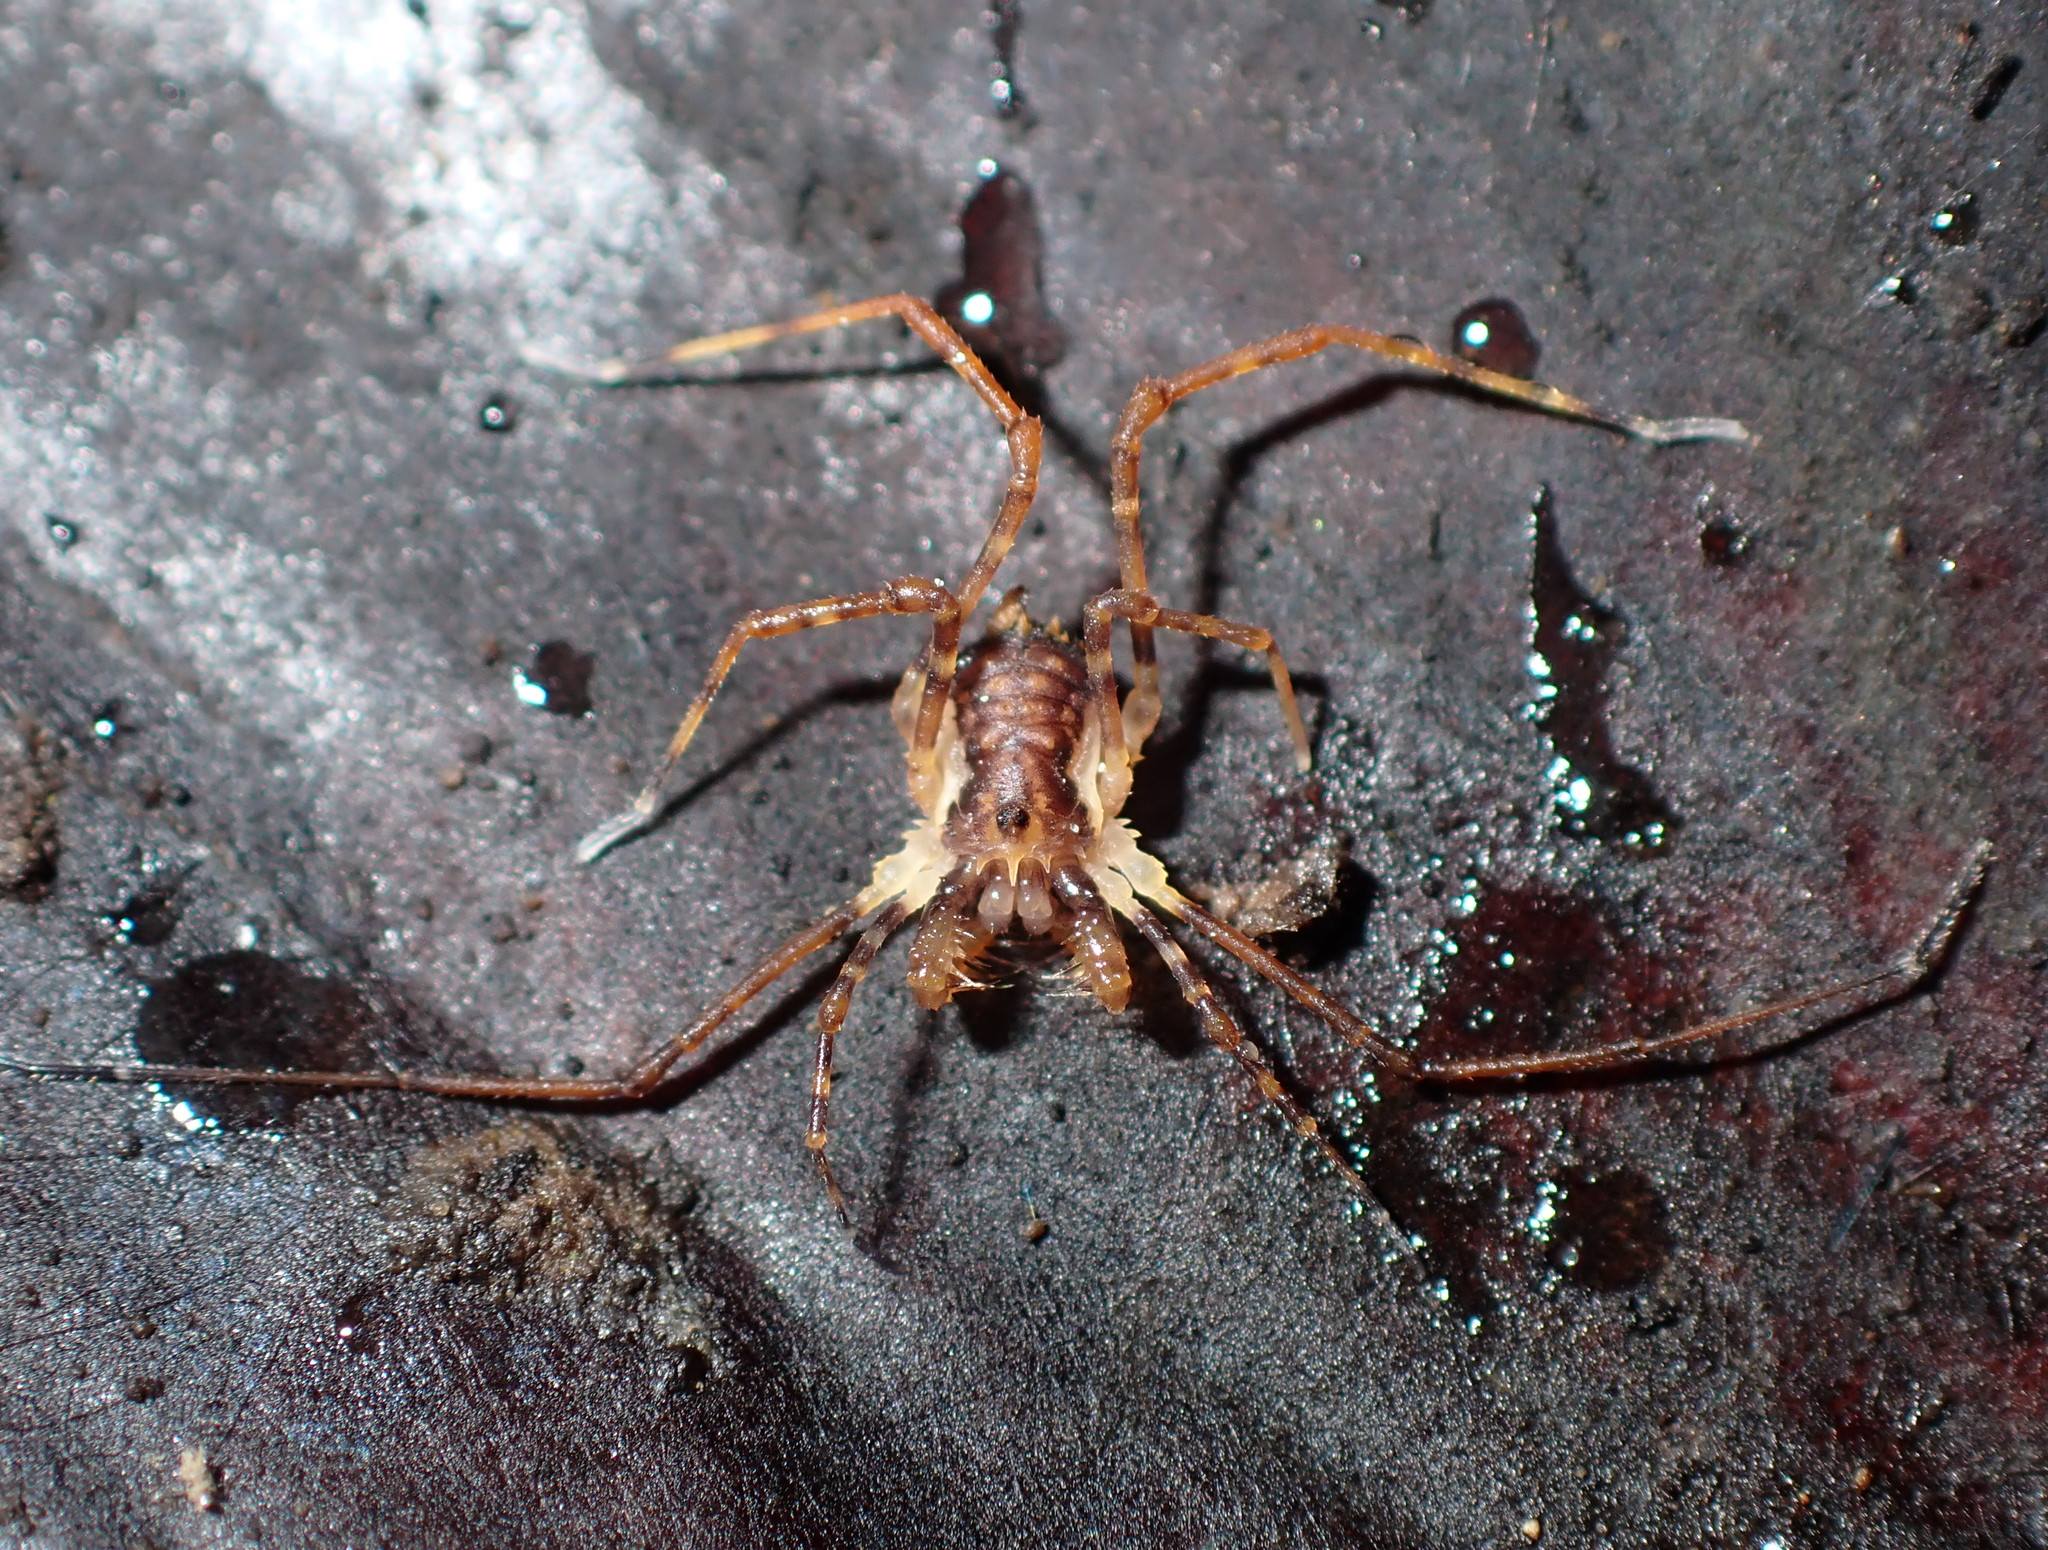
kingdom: Animalia
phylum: Arthropoda
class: Arachnida
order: Opiliones
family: Triaenonychidae
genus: Algidia
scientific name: Algidia chiltoni
